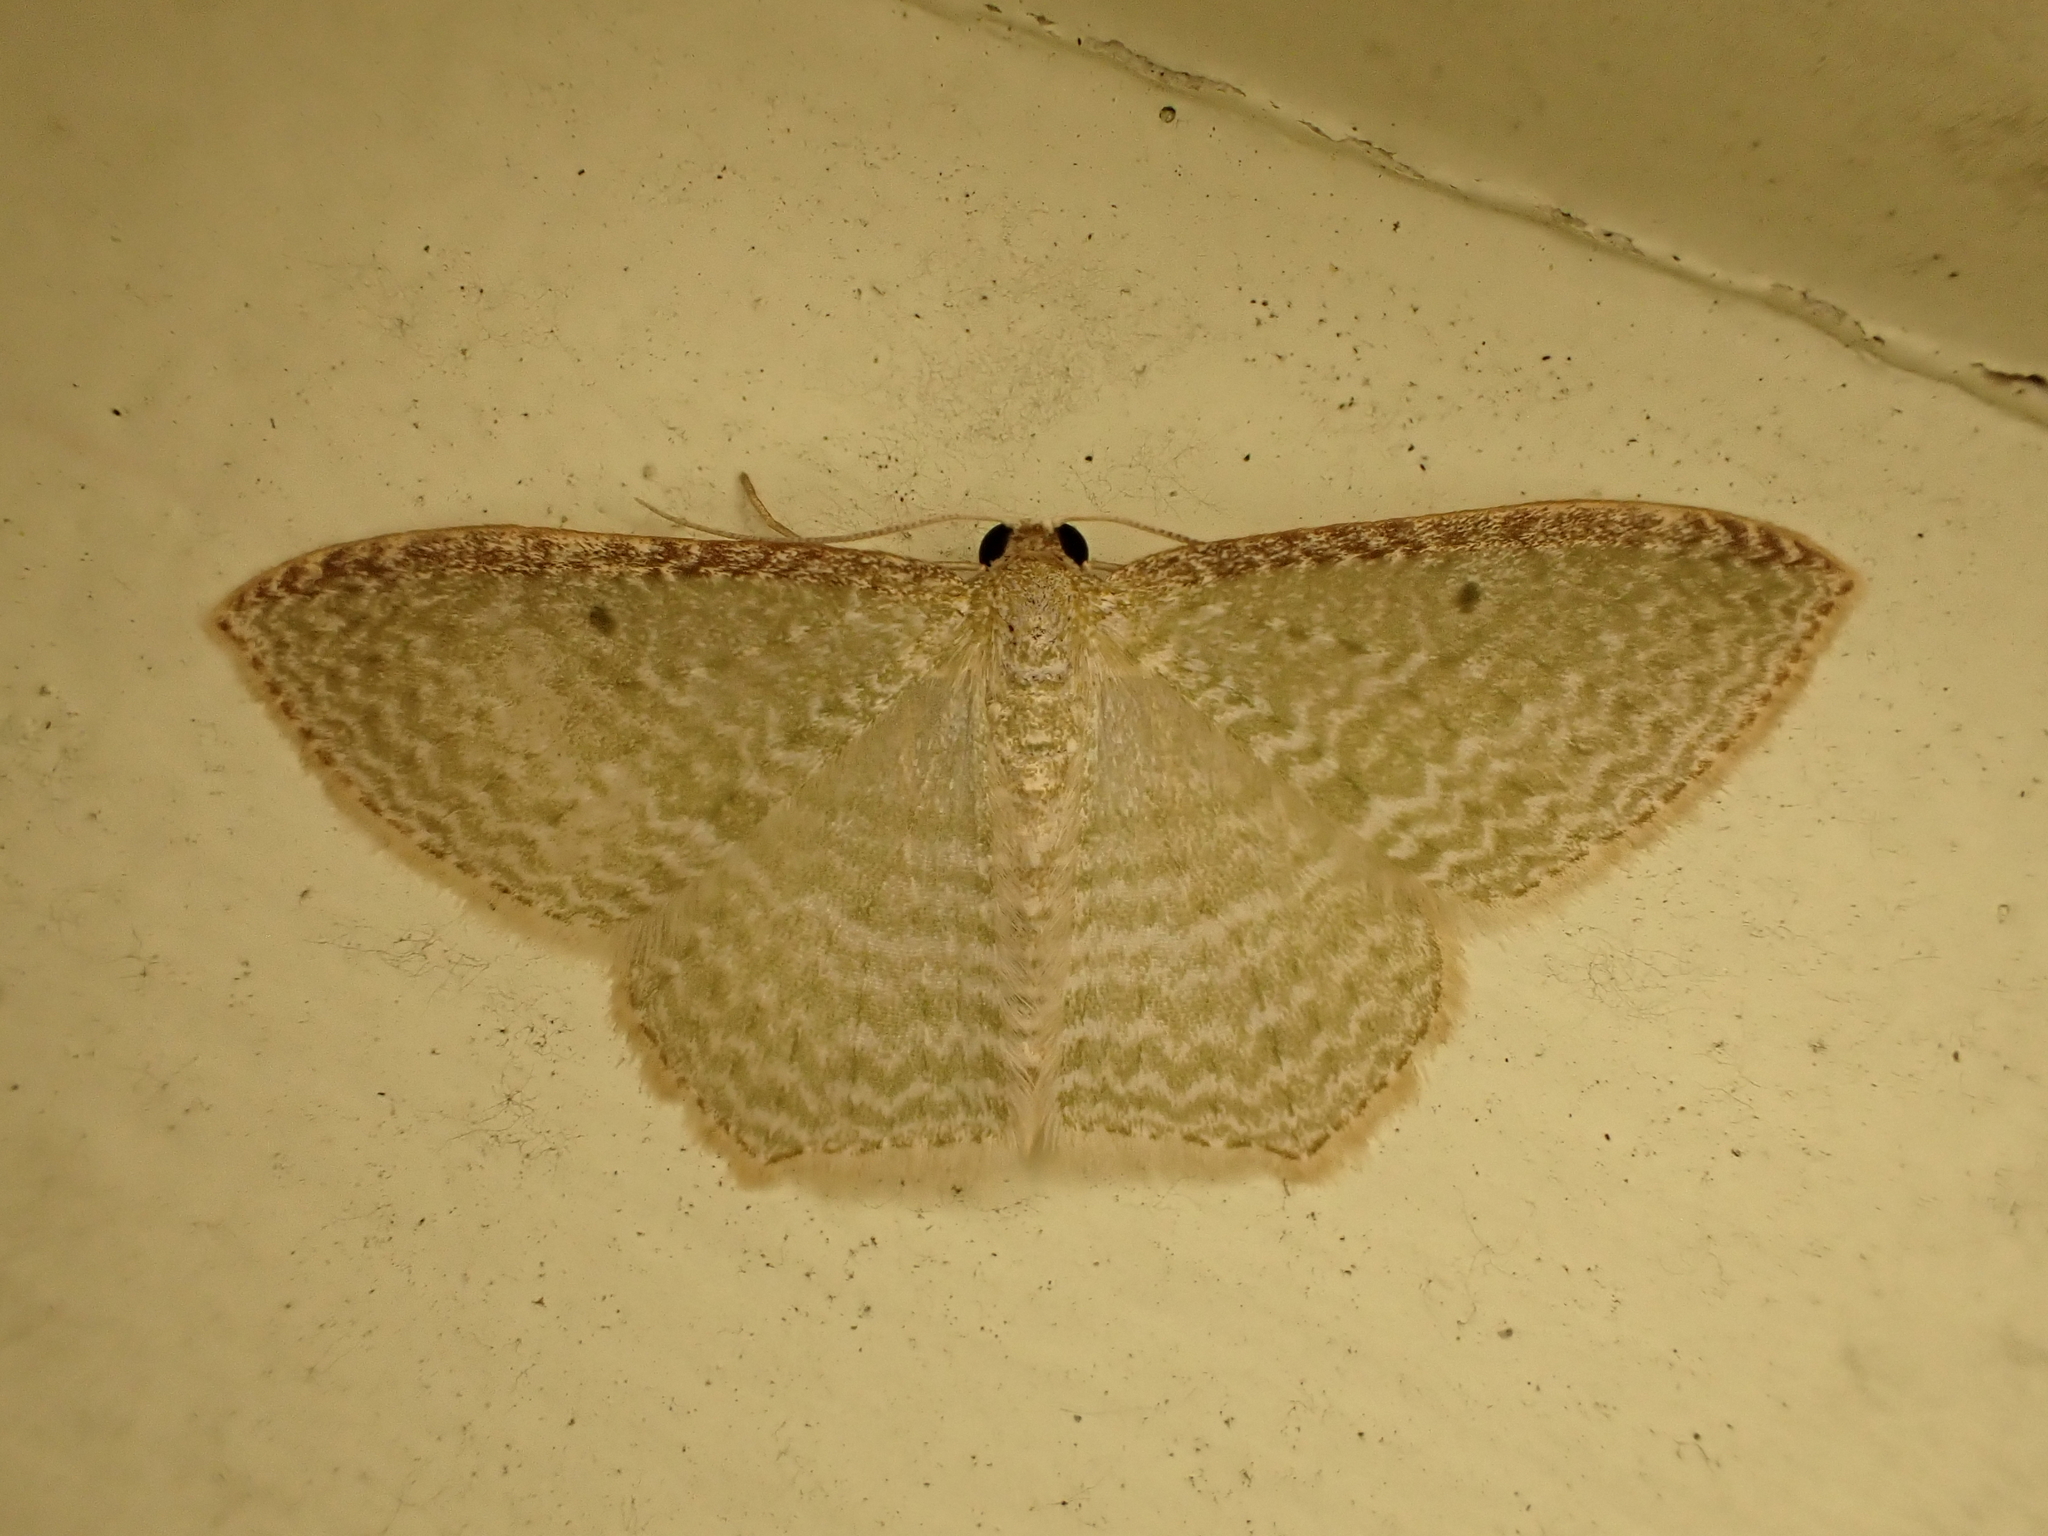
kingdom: Animalia
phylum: Arthropoda
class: Insecta
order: Lepidoptera
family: Geometridae
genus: Poecilasthena
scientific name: Poecilasthena pulchraria
